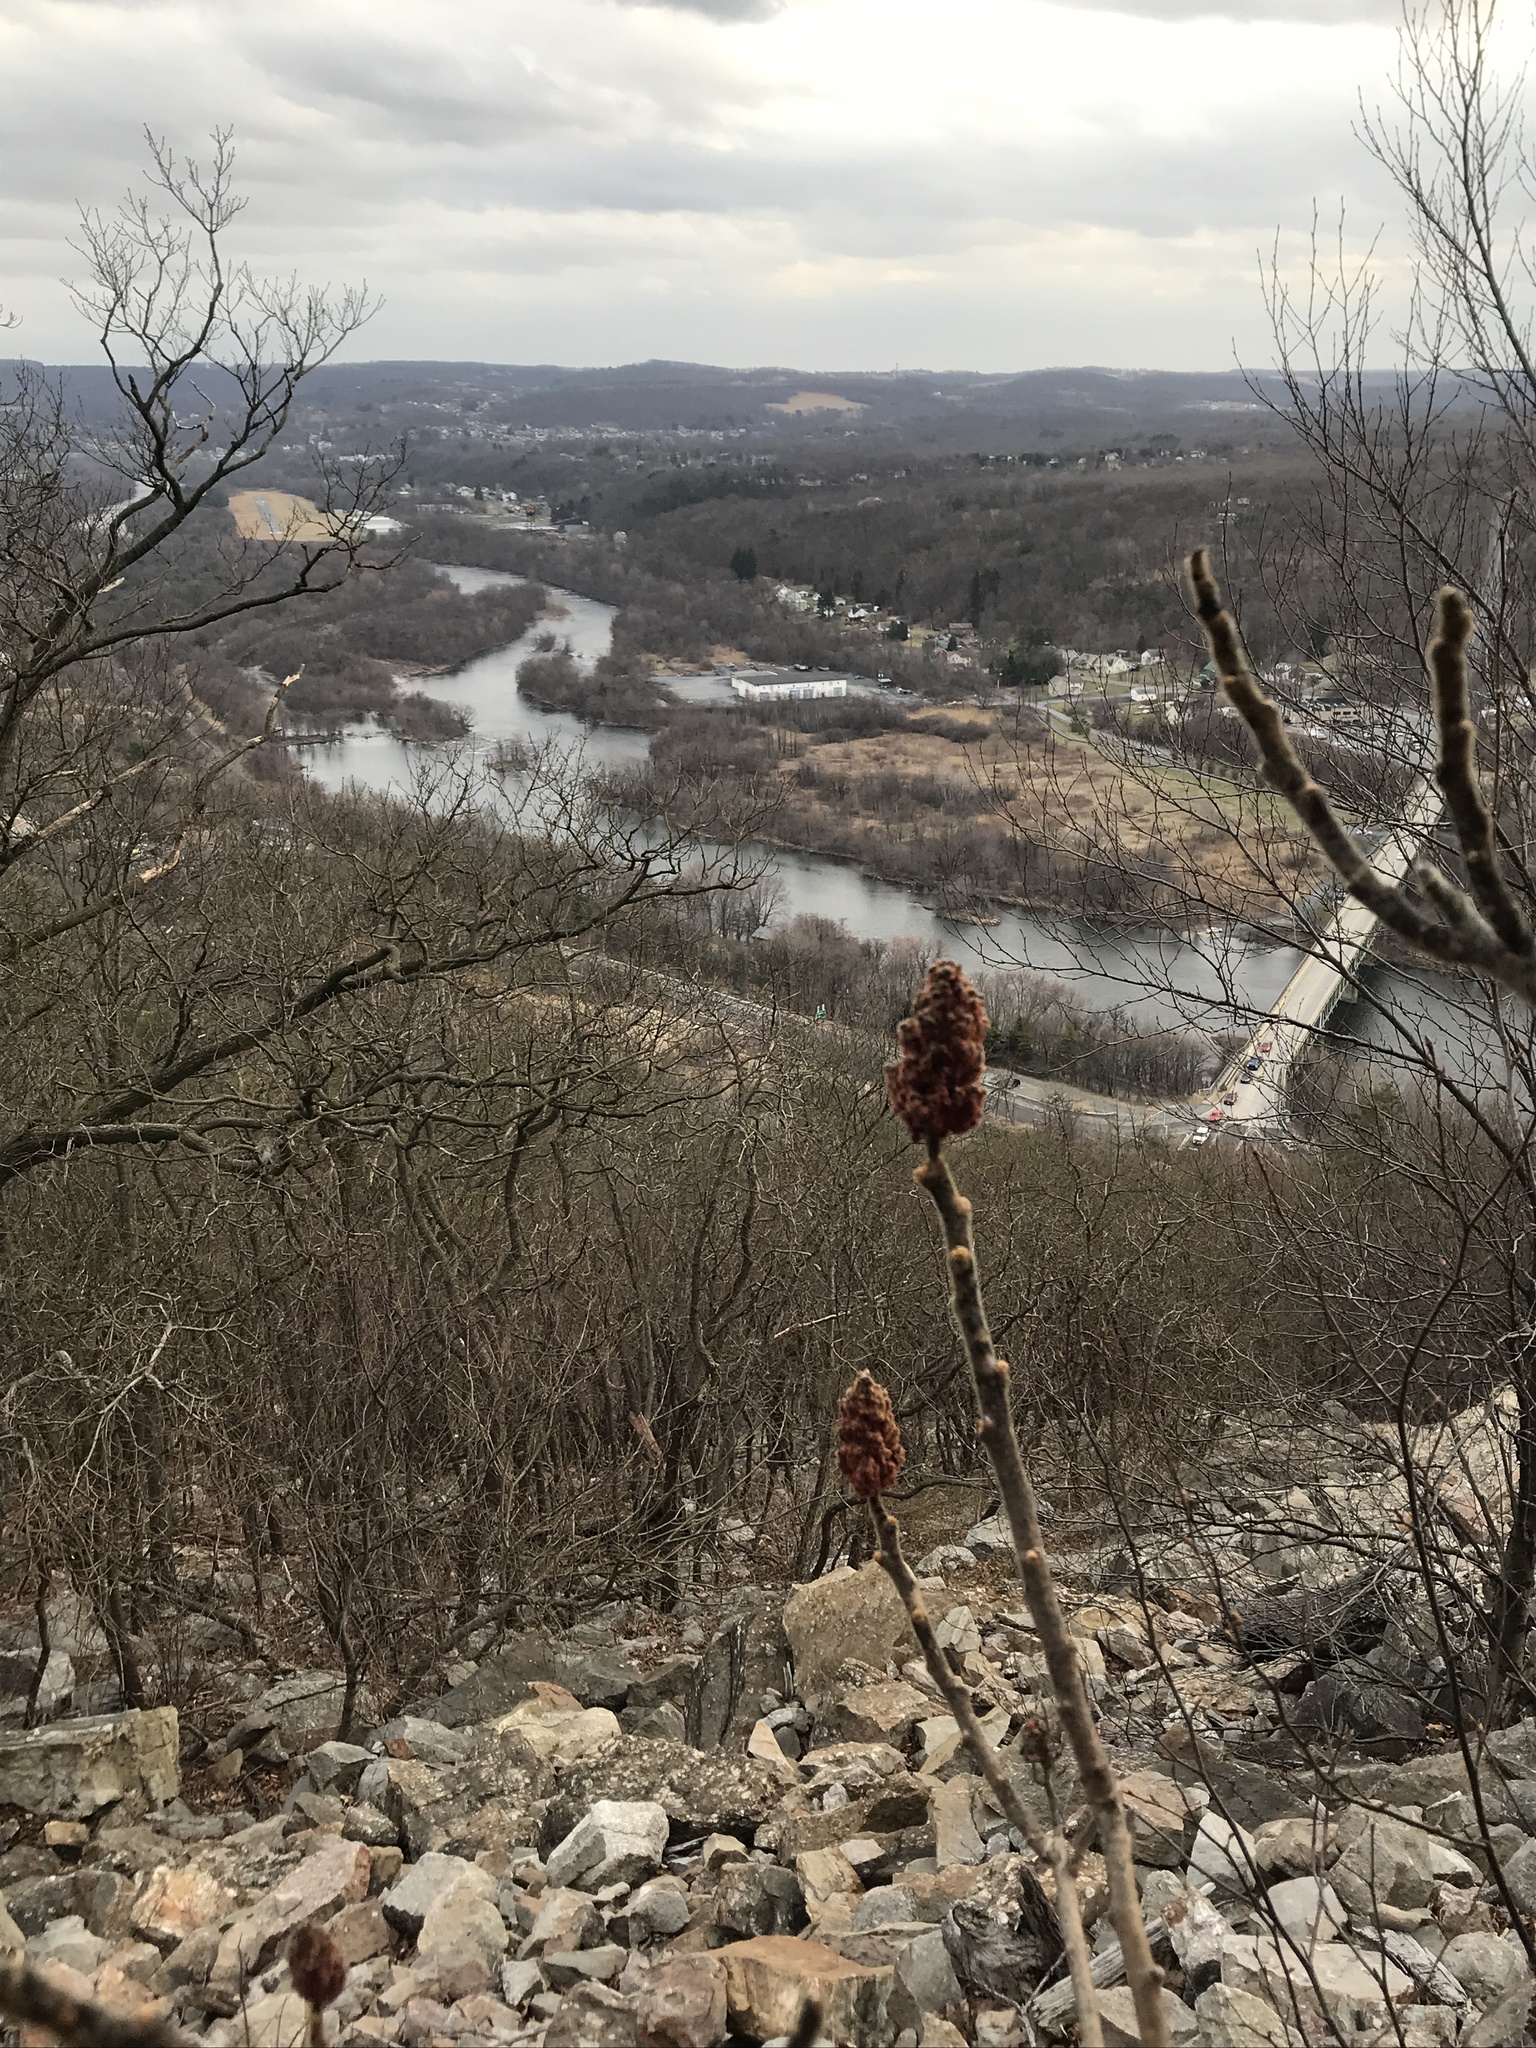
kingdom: Plantae
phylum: Tracheophyta
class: Magnoliopsida
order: Sapindales
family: Anacardiaceae
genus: Rhus
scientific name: Rhus typhina
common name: Staghorn sumac
